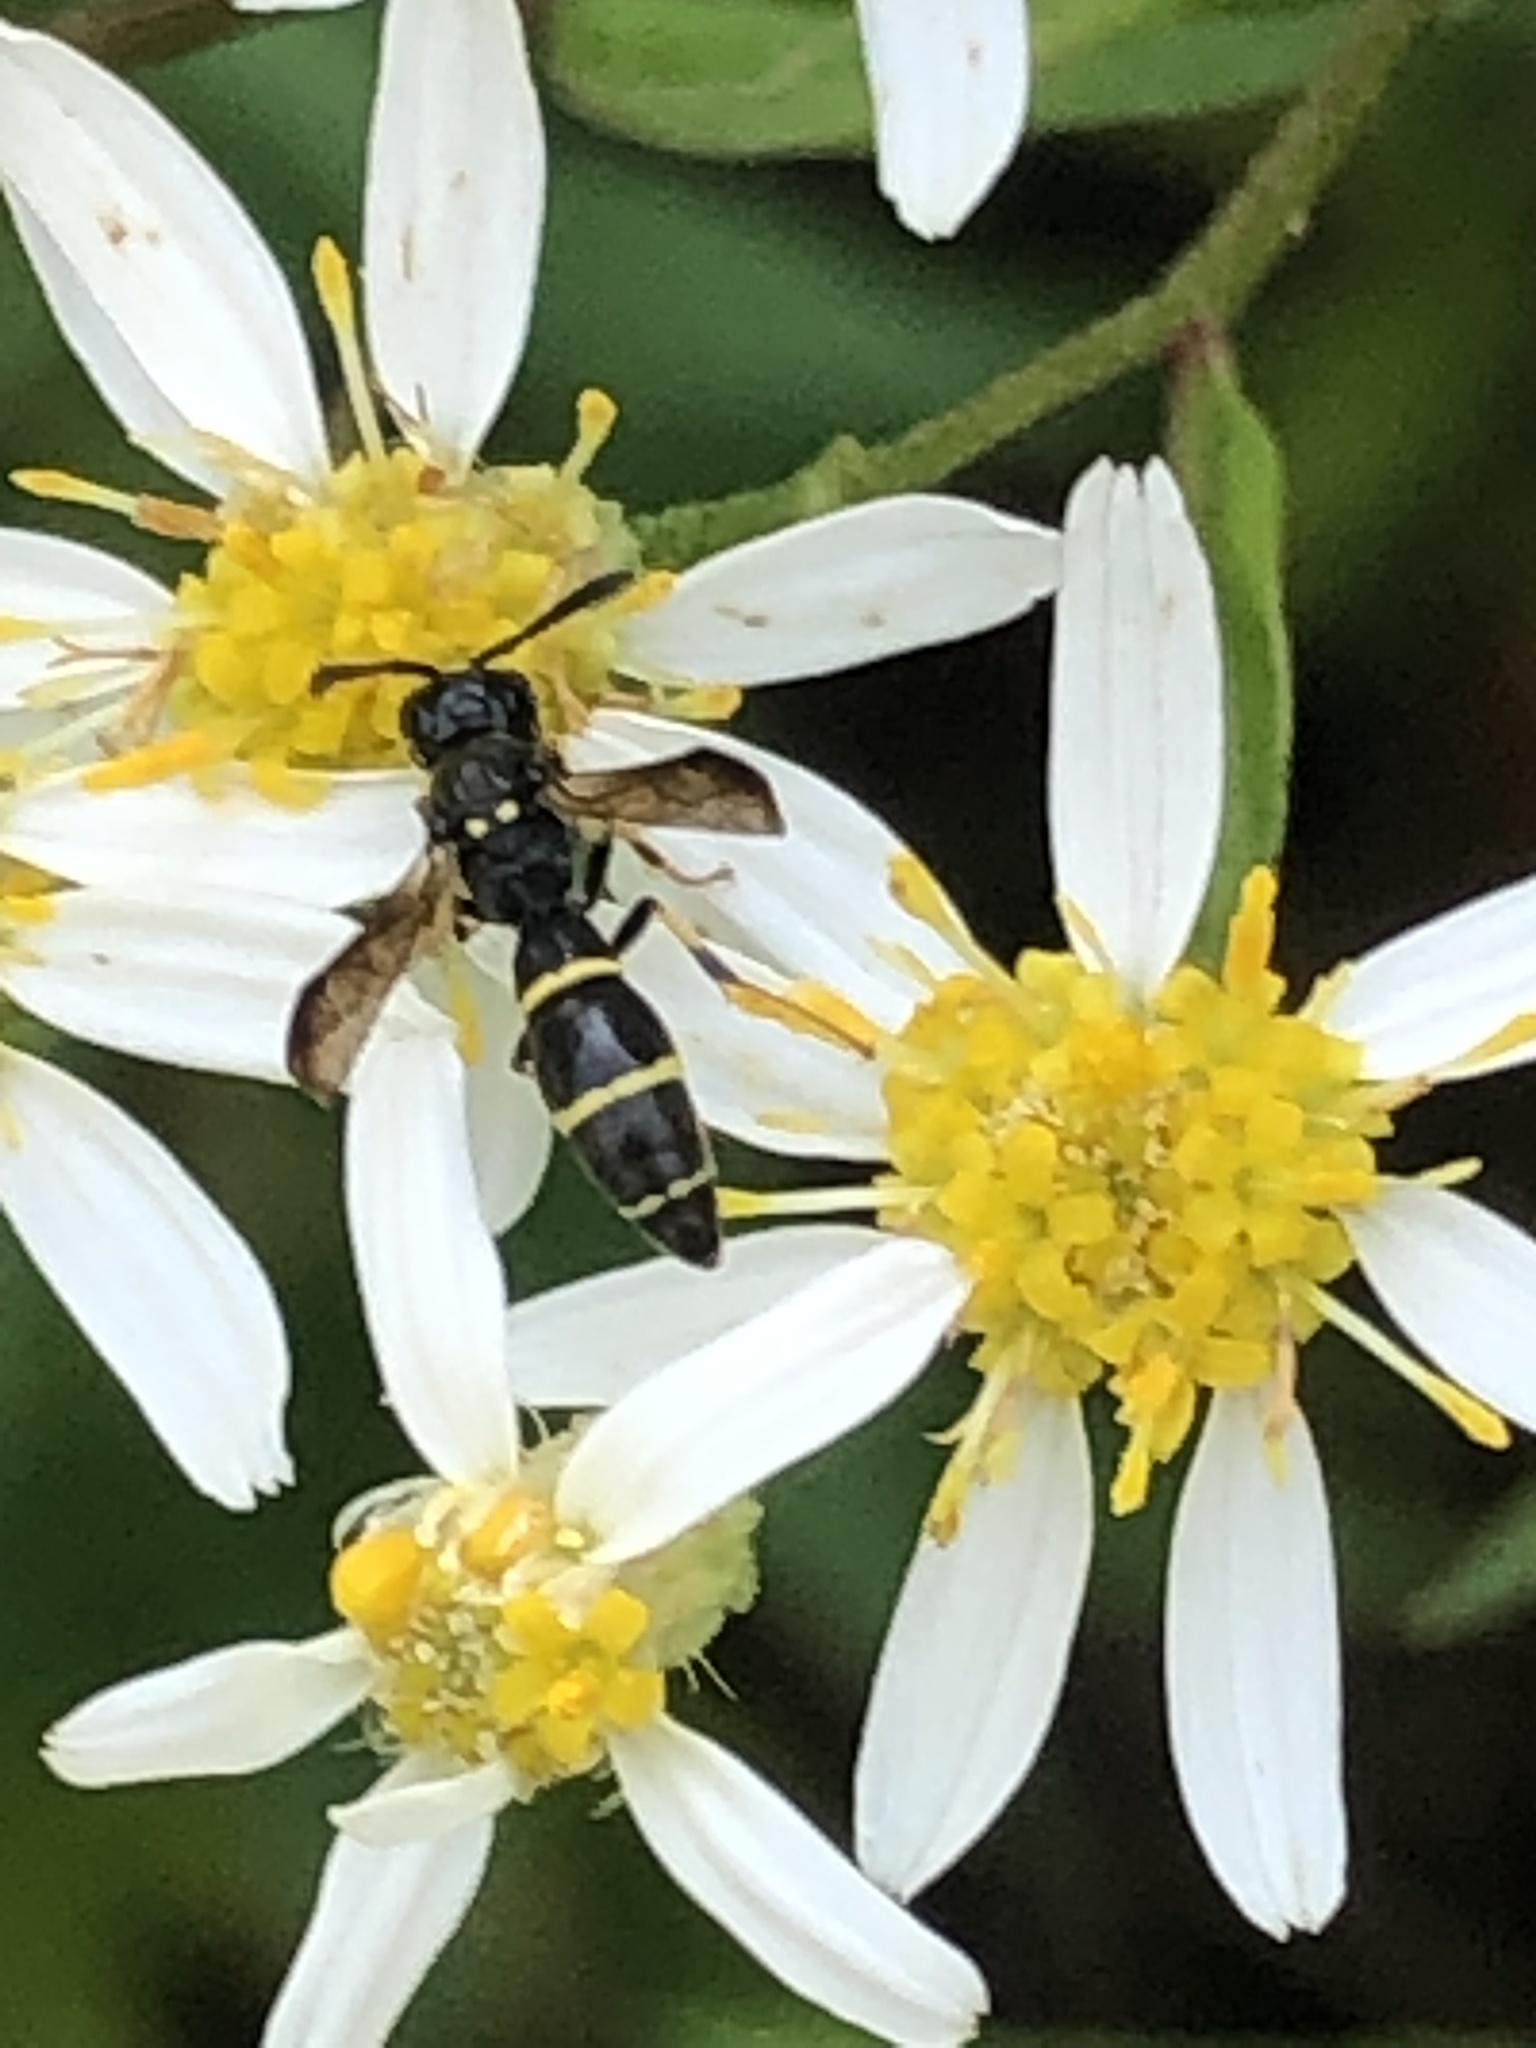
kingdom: Animalia
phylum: Arthropoda
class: Insecta
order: Hymenoptera
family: Eumenidae
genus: Symmorphus
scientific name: Symmorphus
